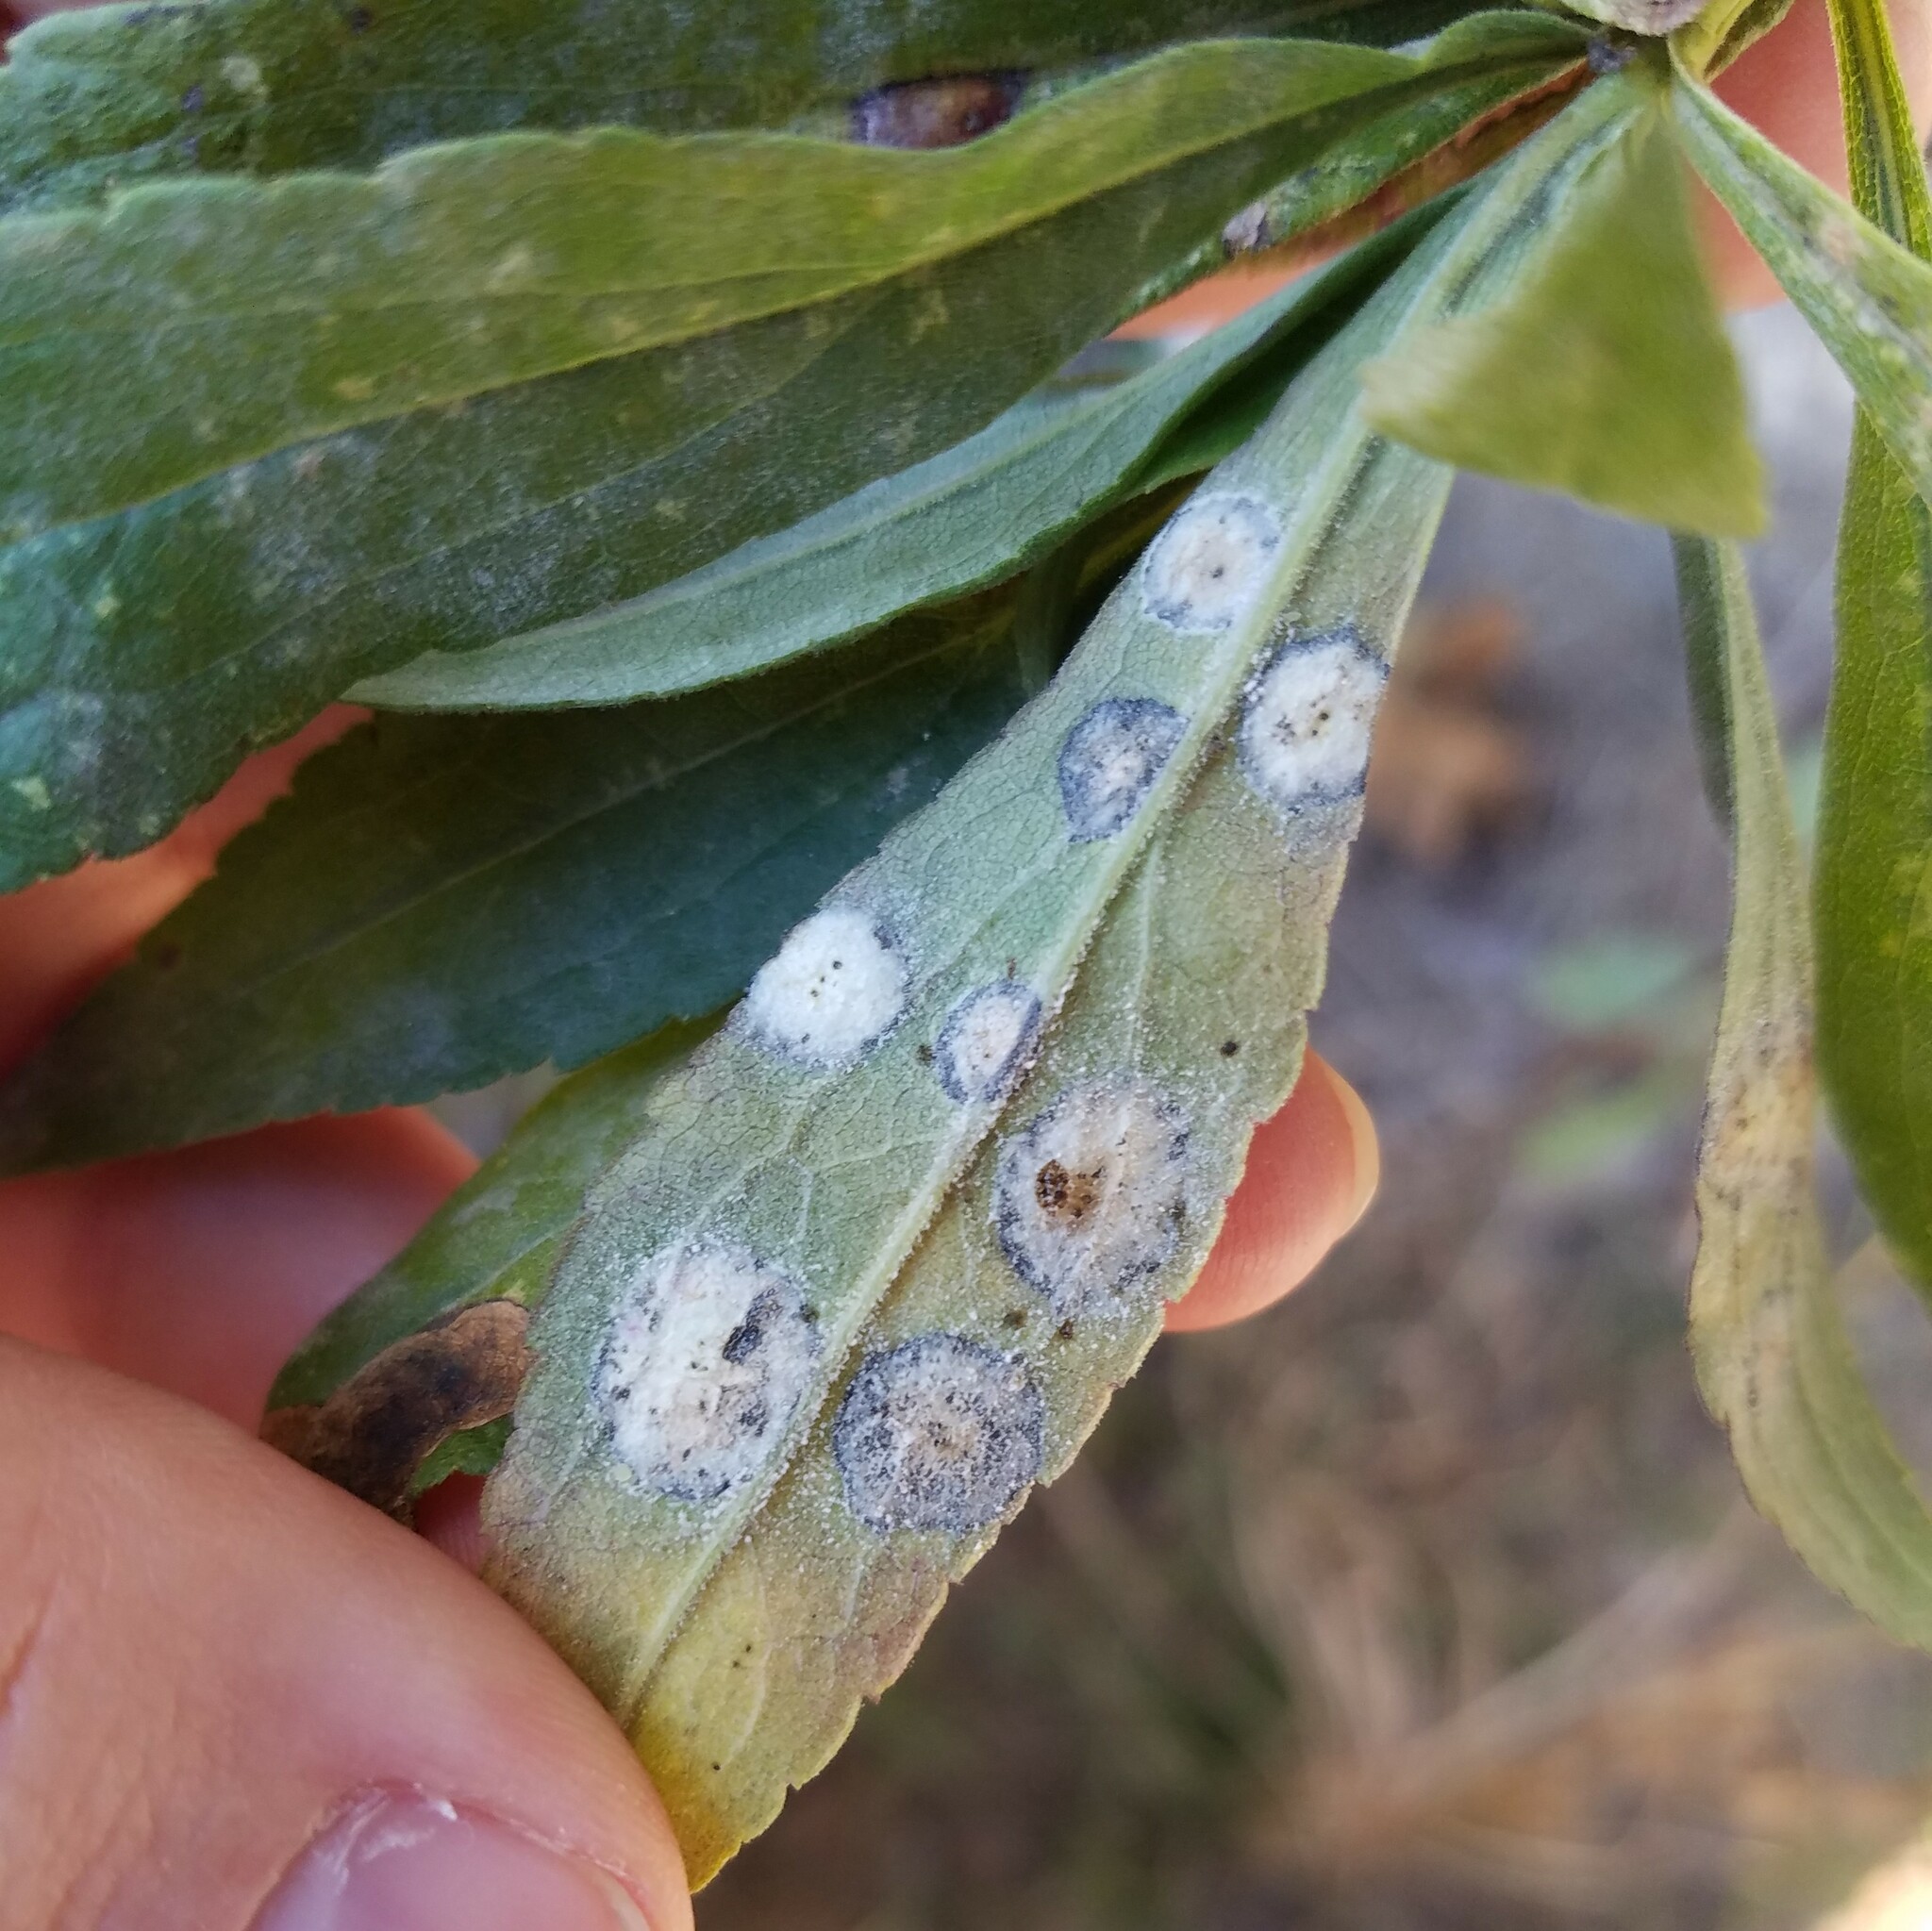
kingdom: Fungi
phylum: Ascomycota
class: Dothideomycetes
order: Botryosphaeriales
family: Botryosphaeriaceae
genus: Botryosphaeria
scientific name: Botryosphaeria dothidea
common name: Asteromyia gall midge fungus
